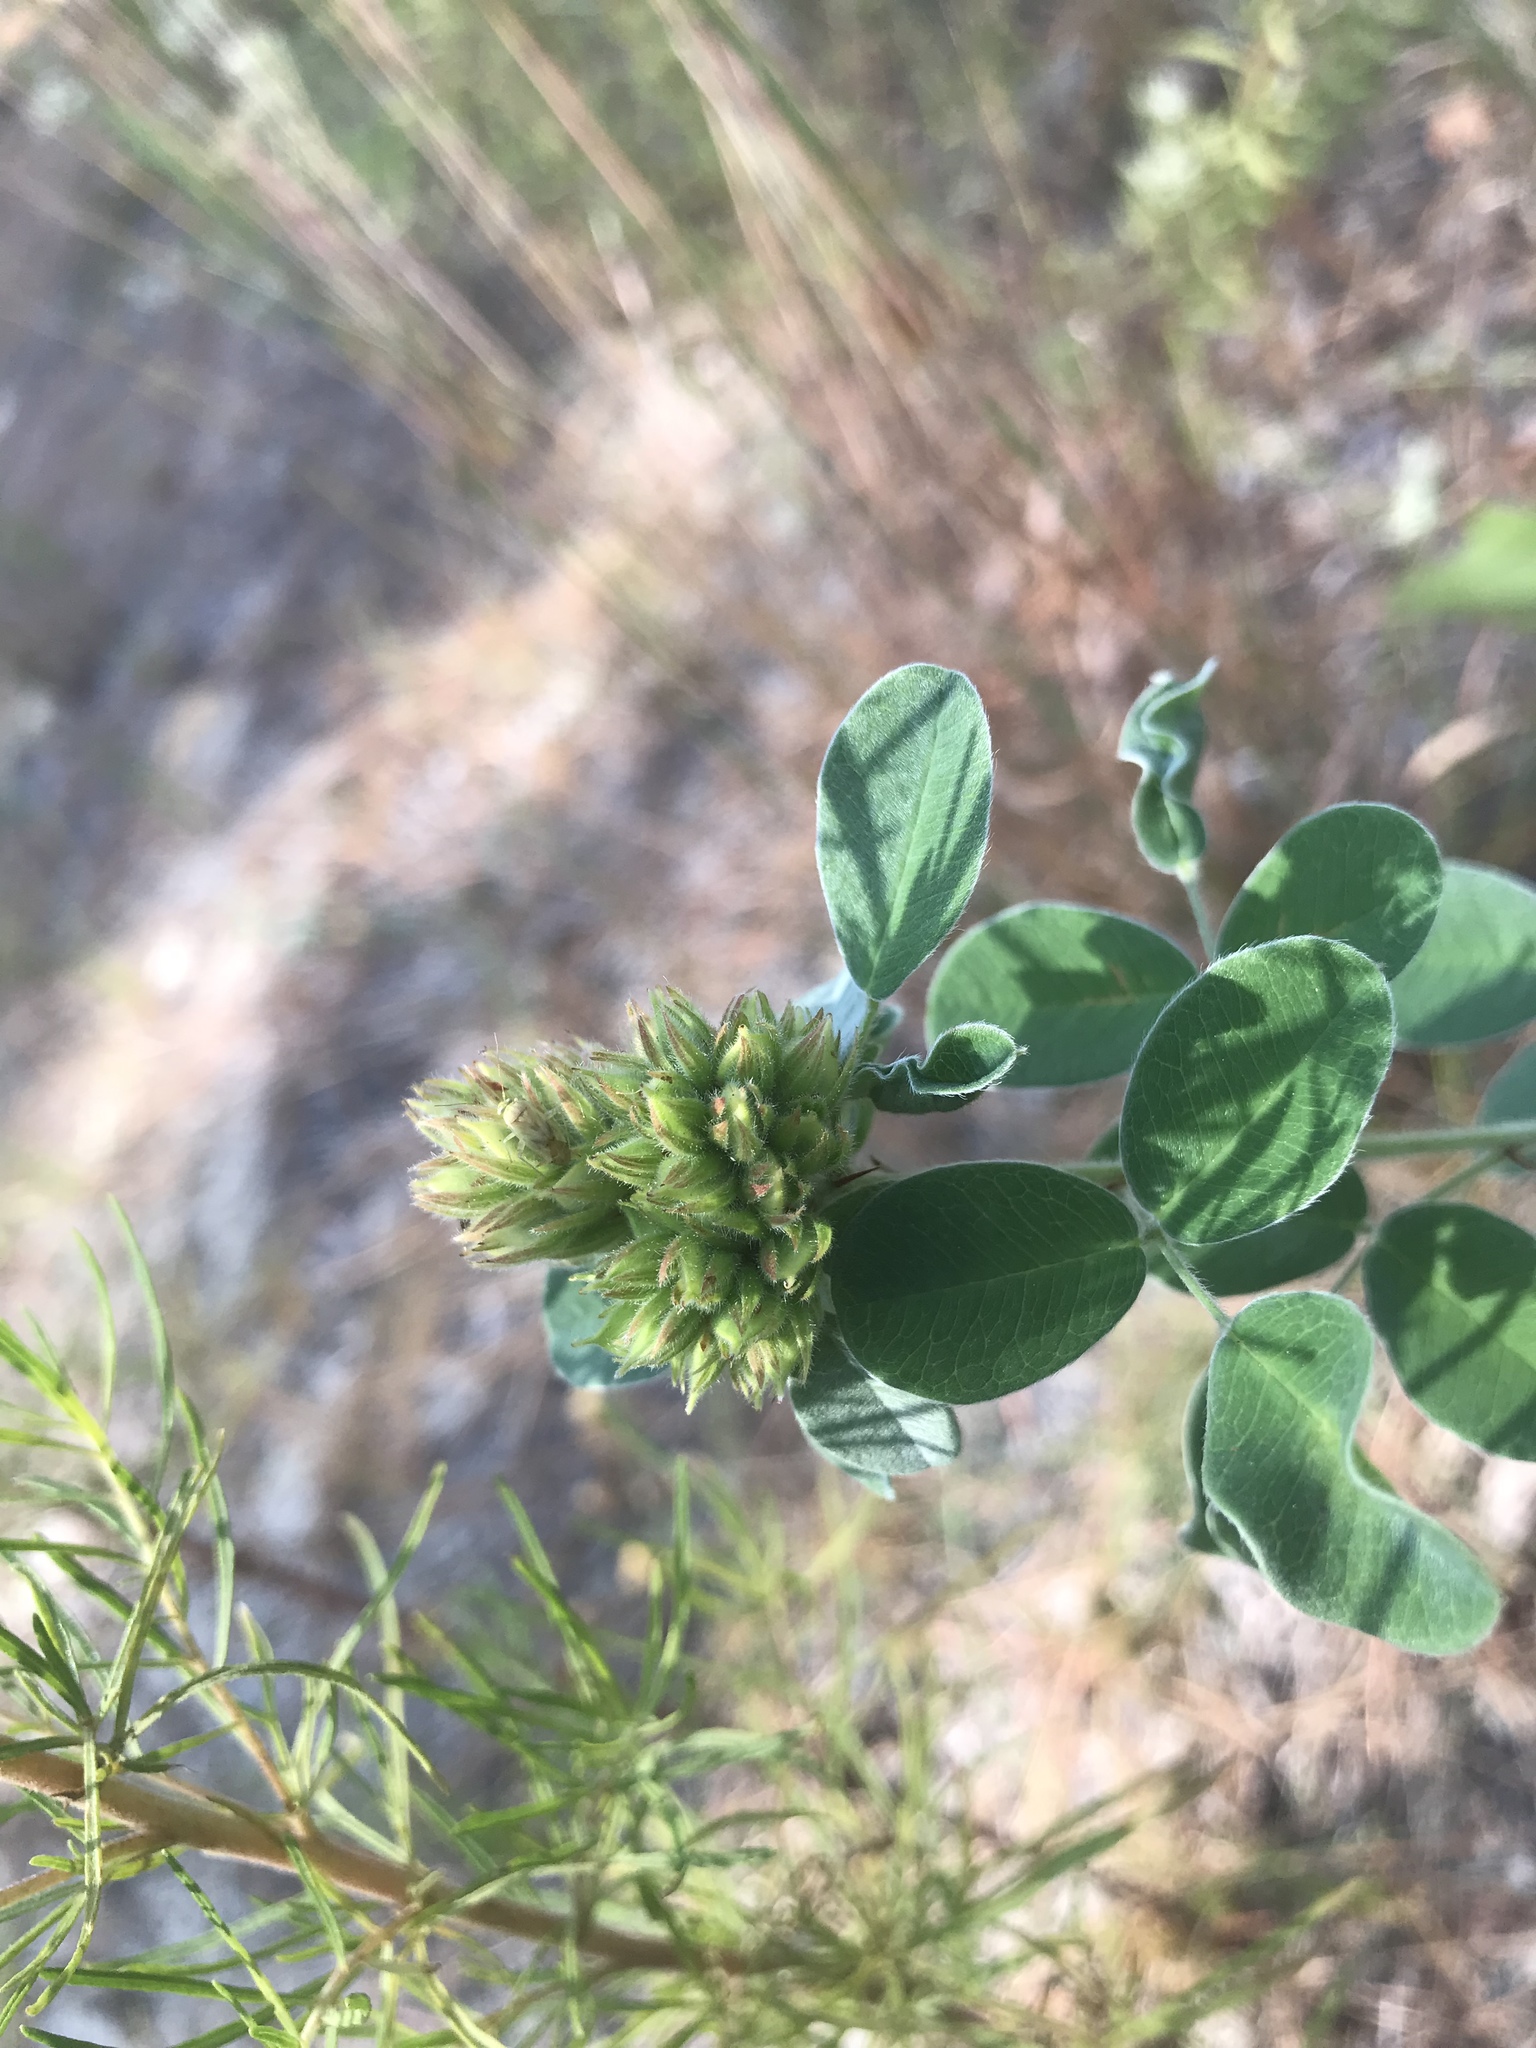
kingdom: Plantae
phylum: Tracheophyta
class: Magnoliopsida
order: Fabales
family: Fabaceae
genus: Lespedeza
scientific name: Lespedeza hirta
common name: Hairy lespedeza
